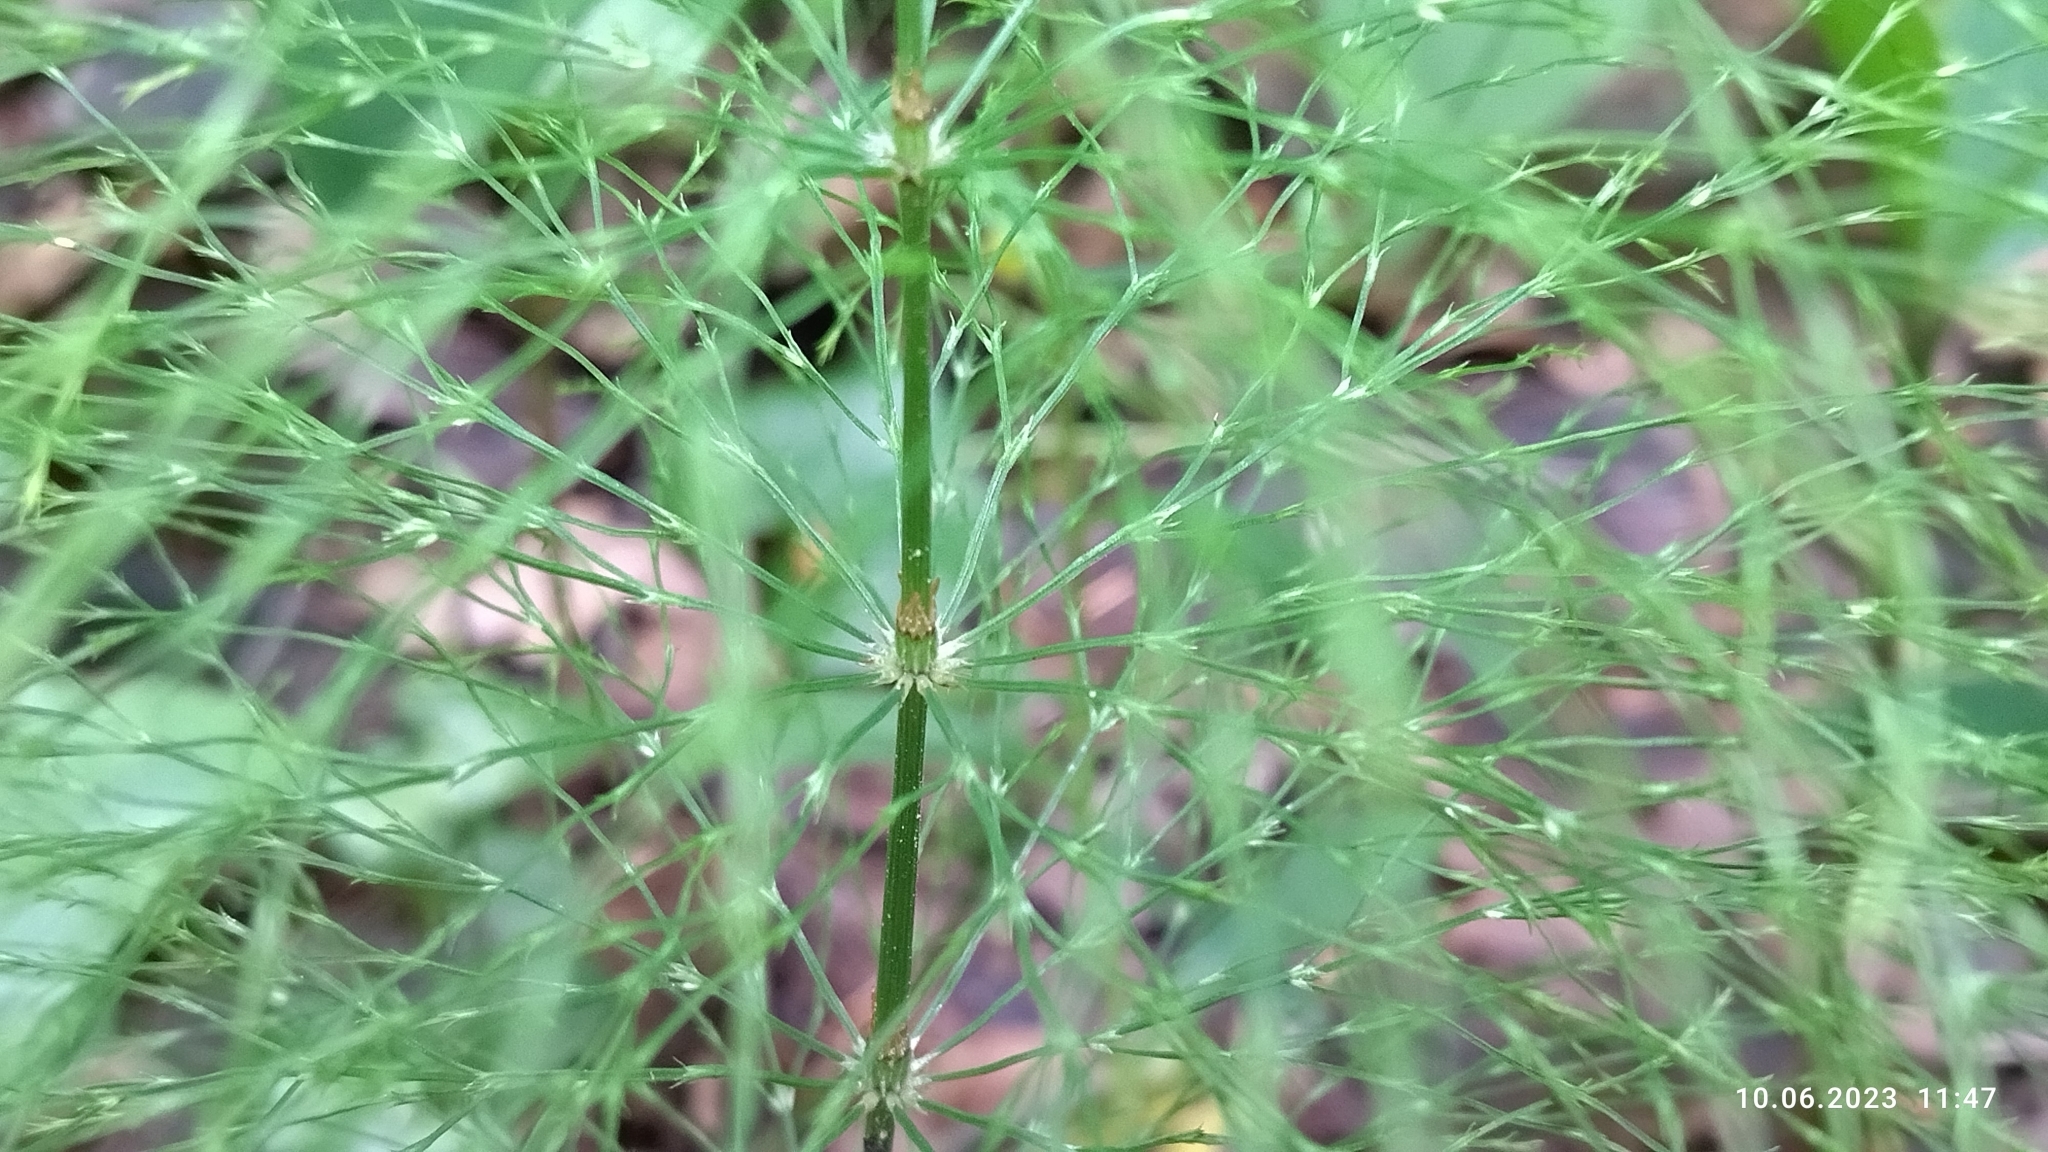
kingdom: Plantae
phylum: Tracheophyta
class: Polypodiopsida
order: Equisetales
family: Equisetaceae
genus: Equisetum
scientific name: Equisetum sylvaticum
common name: Wood horsetail
